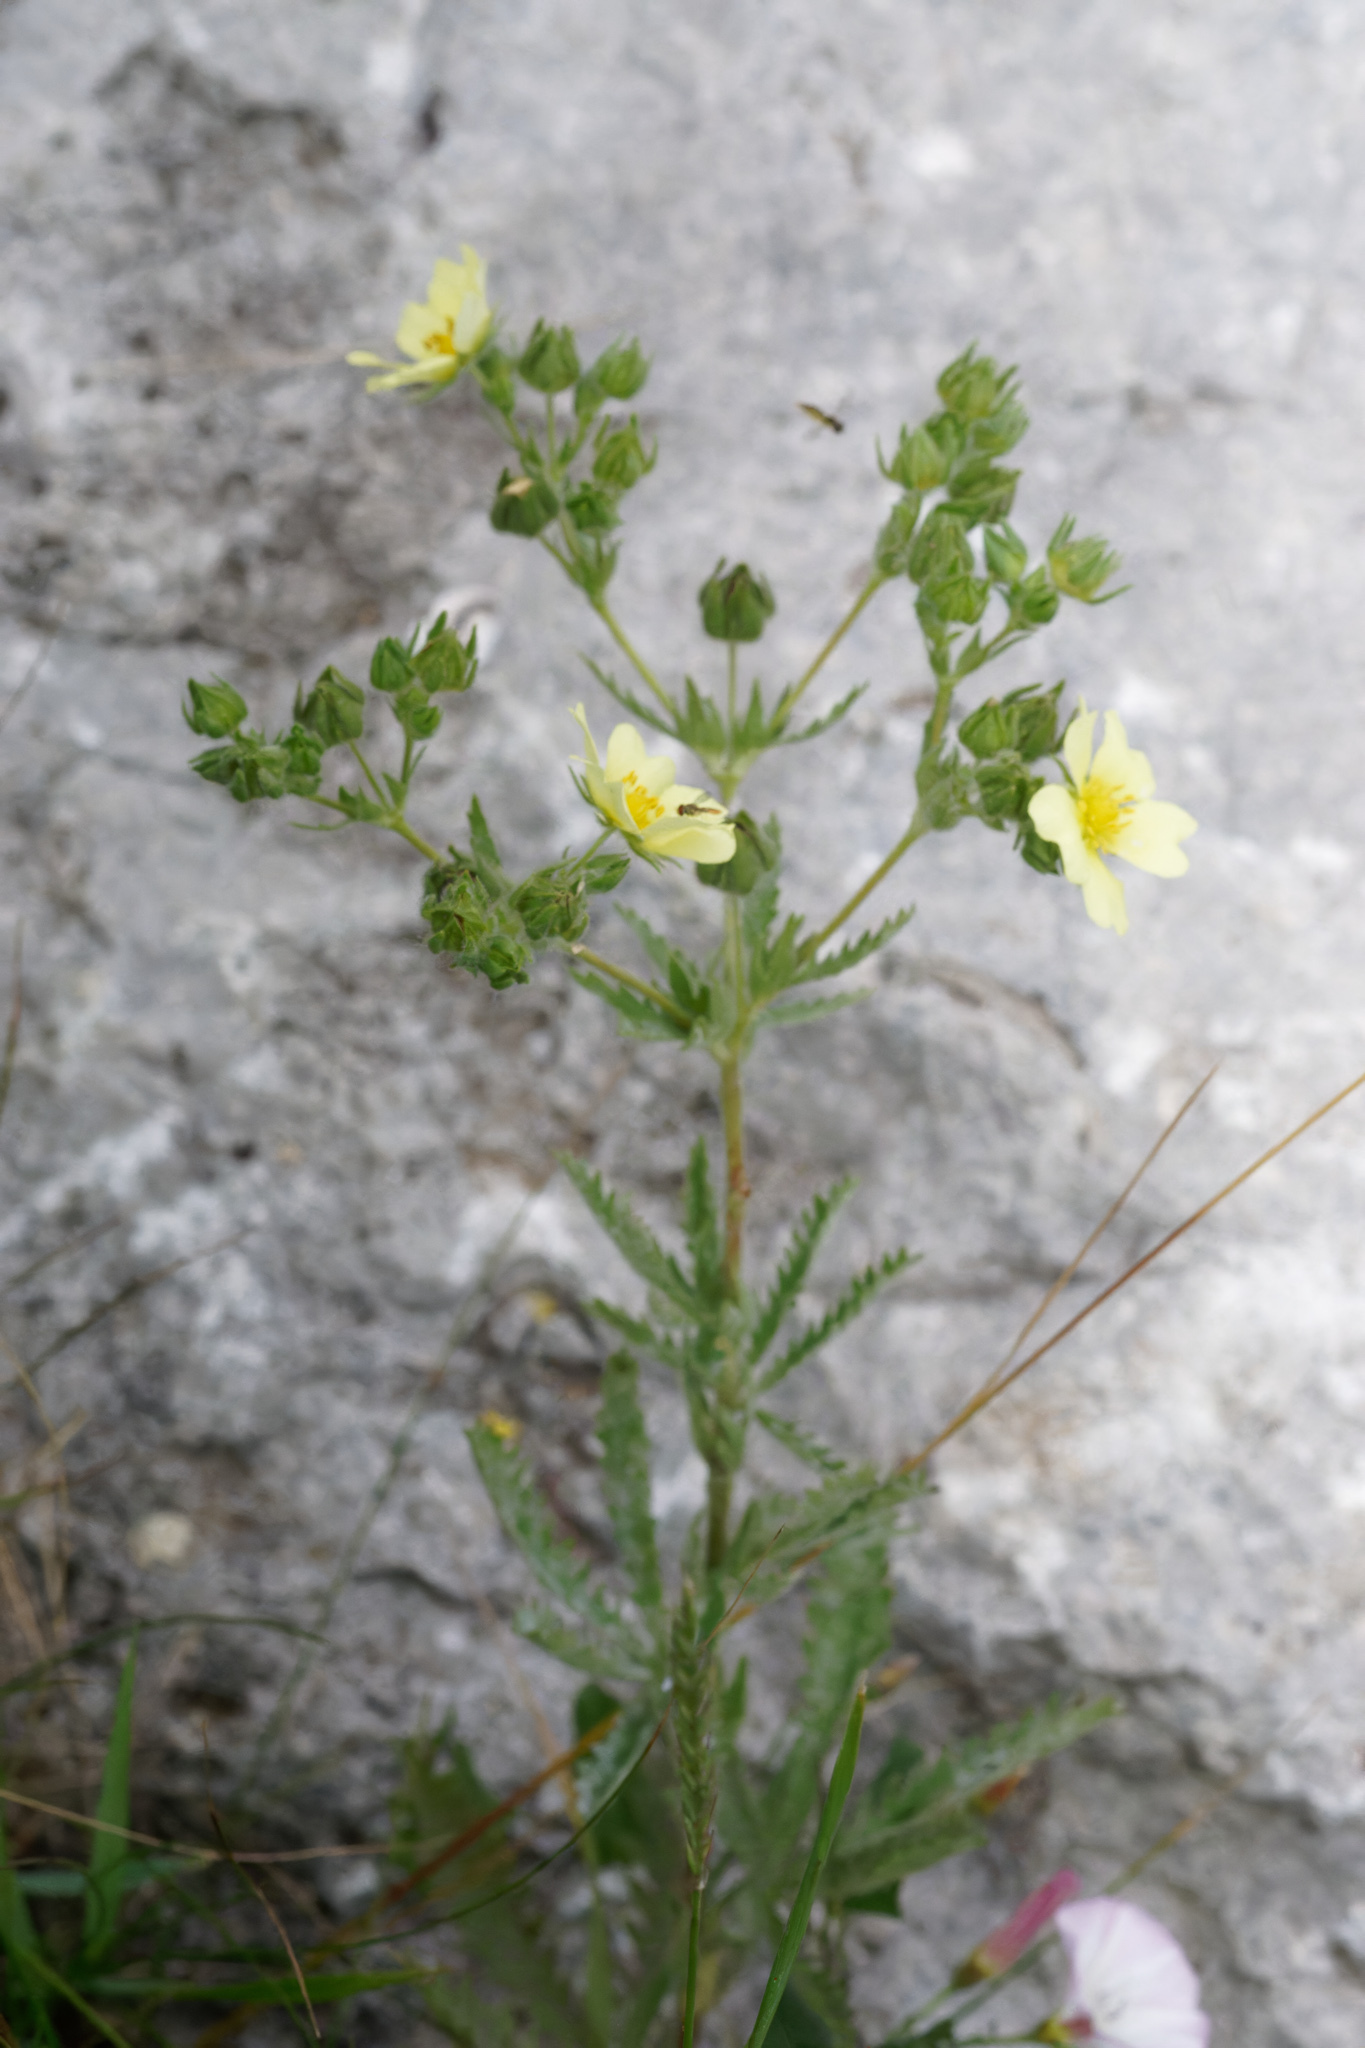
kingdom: Plantae
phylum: Tracheophyta
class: Magnoliopsida
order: Rosales
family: Rosaceae
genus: Potentilla
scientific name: Potentilla recta
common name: Sulphur cinquefoil
